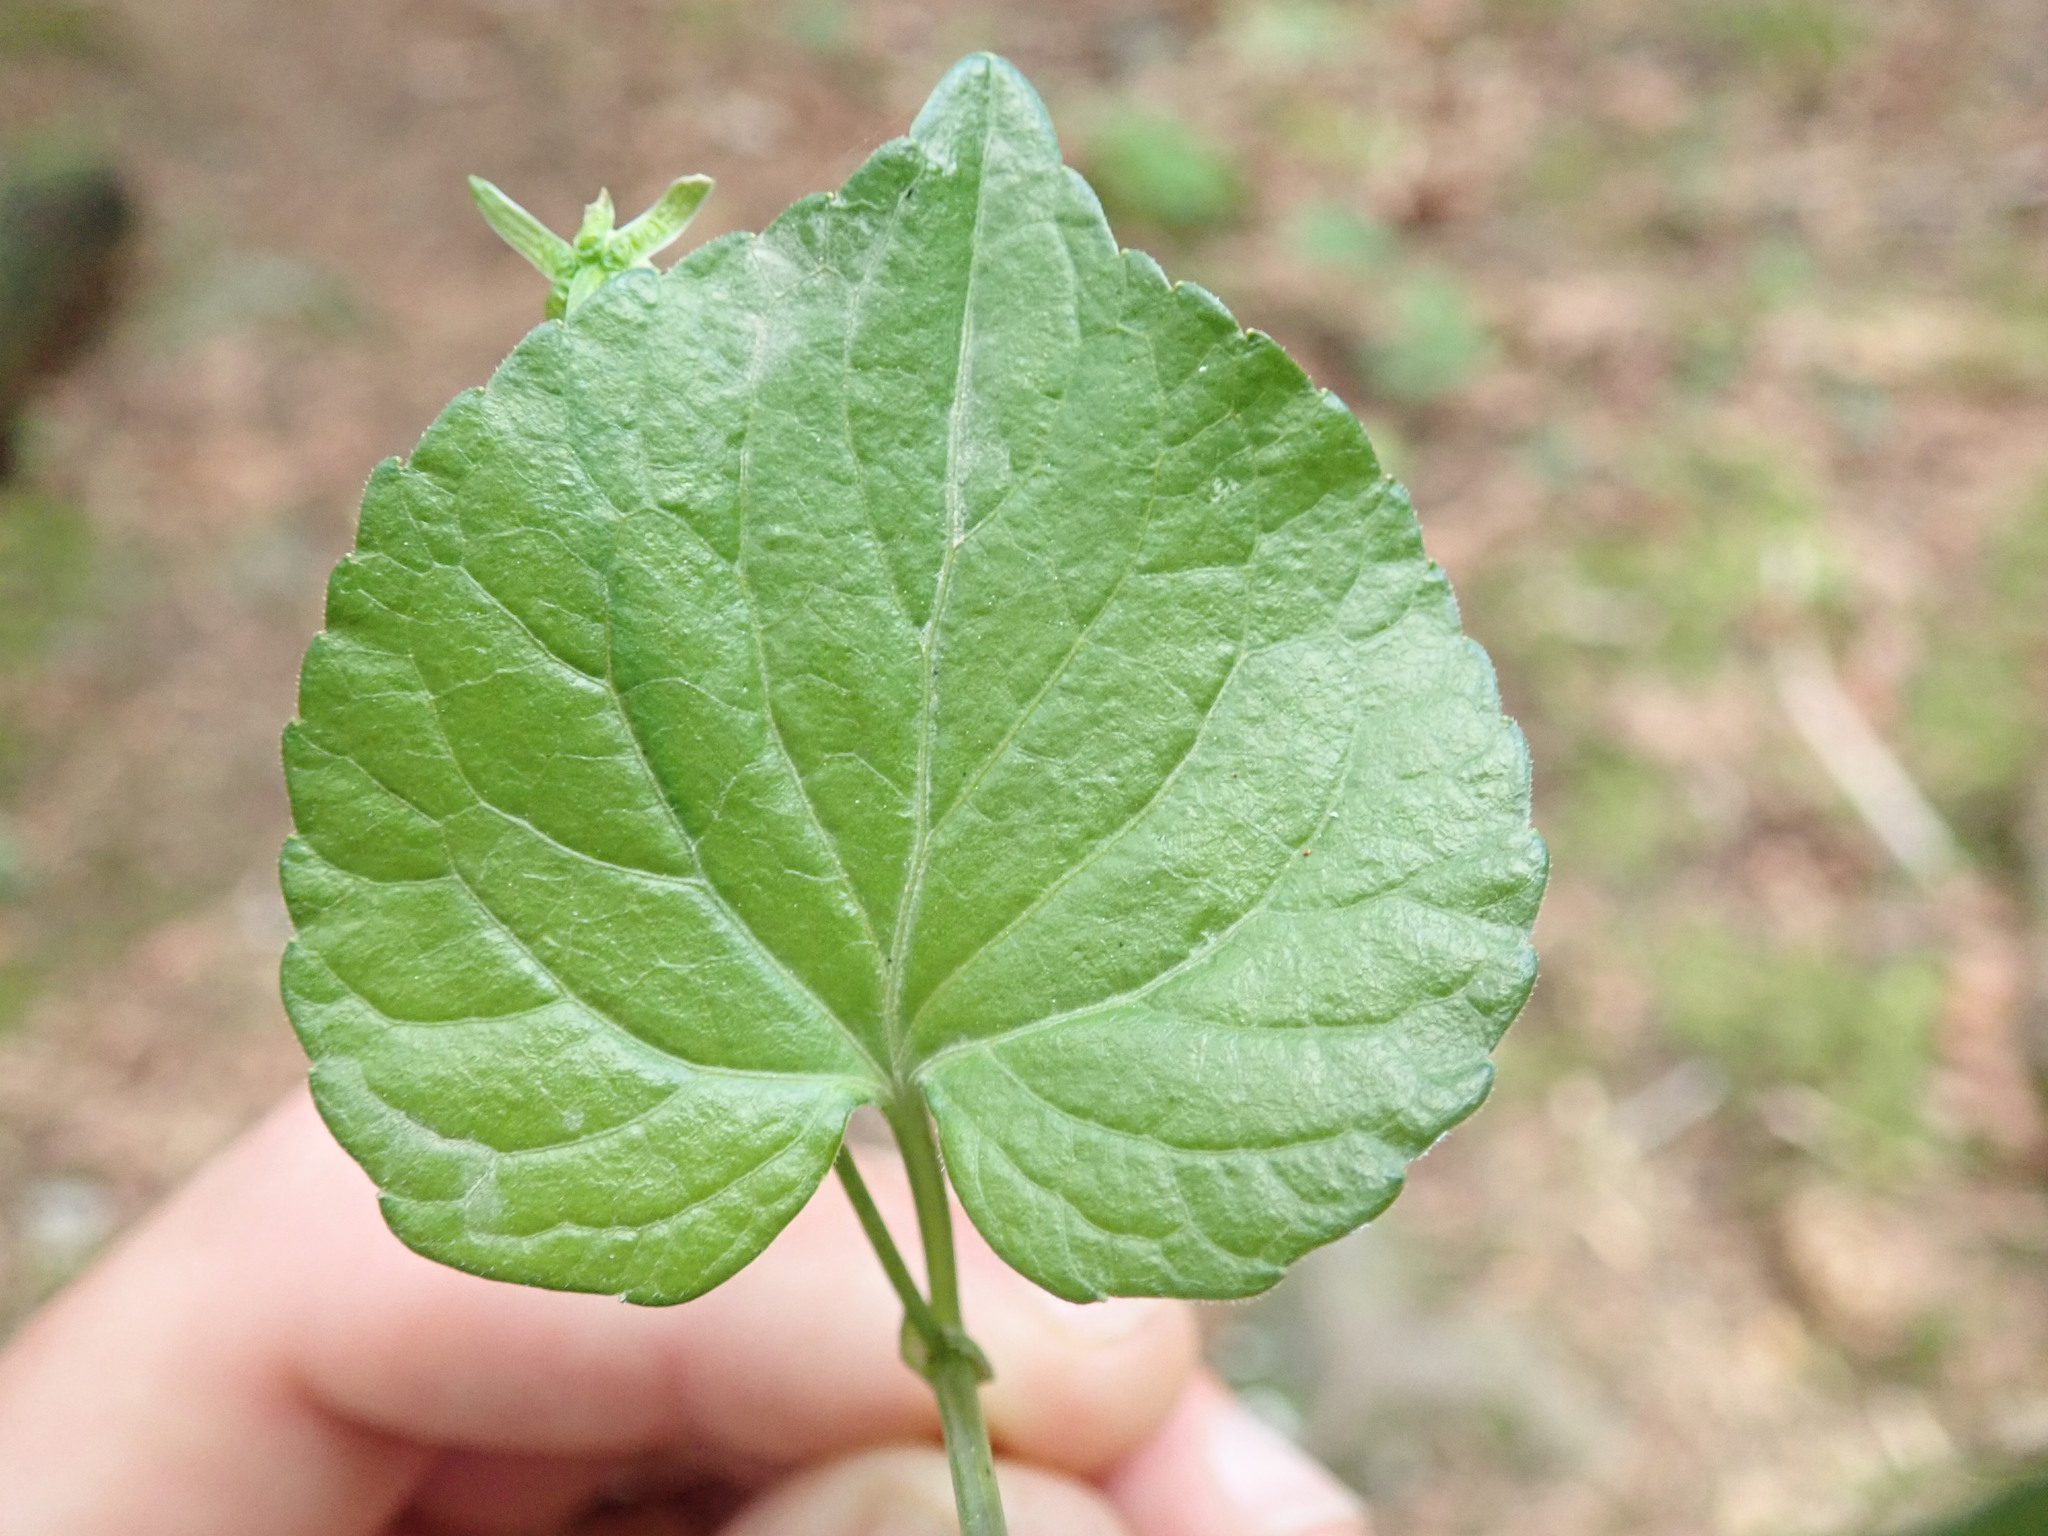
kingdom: Plantae
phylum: Tracheophyta
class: Magnoliopsida
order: Malpighiales
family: Violaceae
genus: Viola
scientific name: Viola glabella
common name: Stream violet
